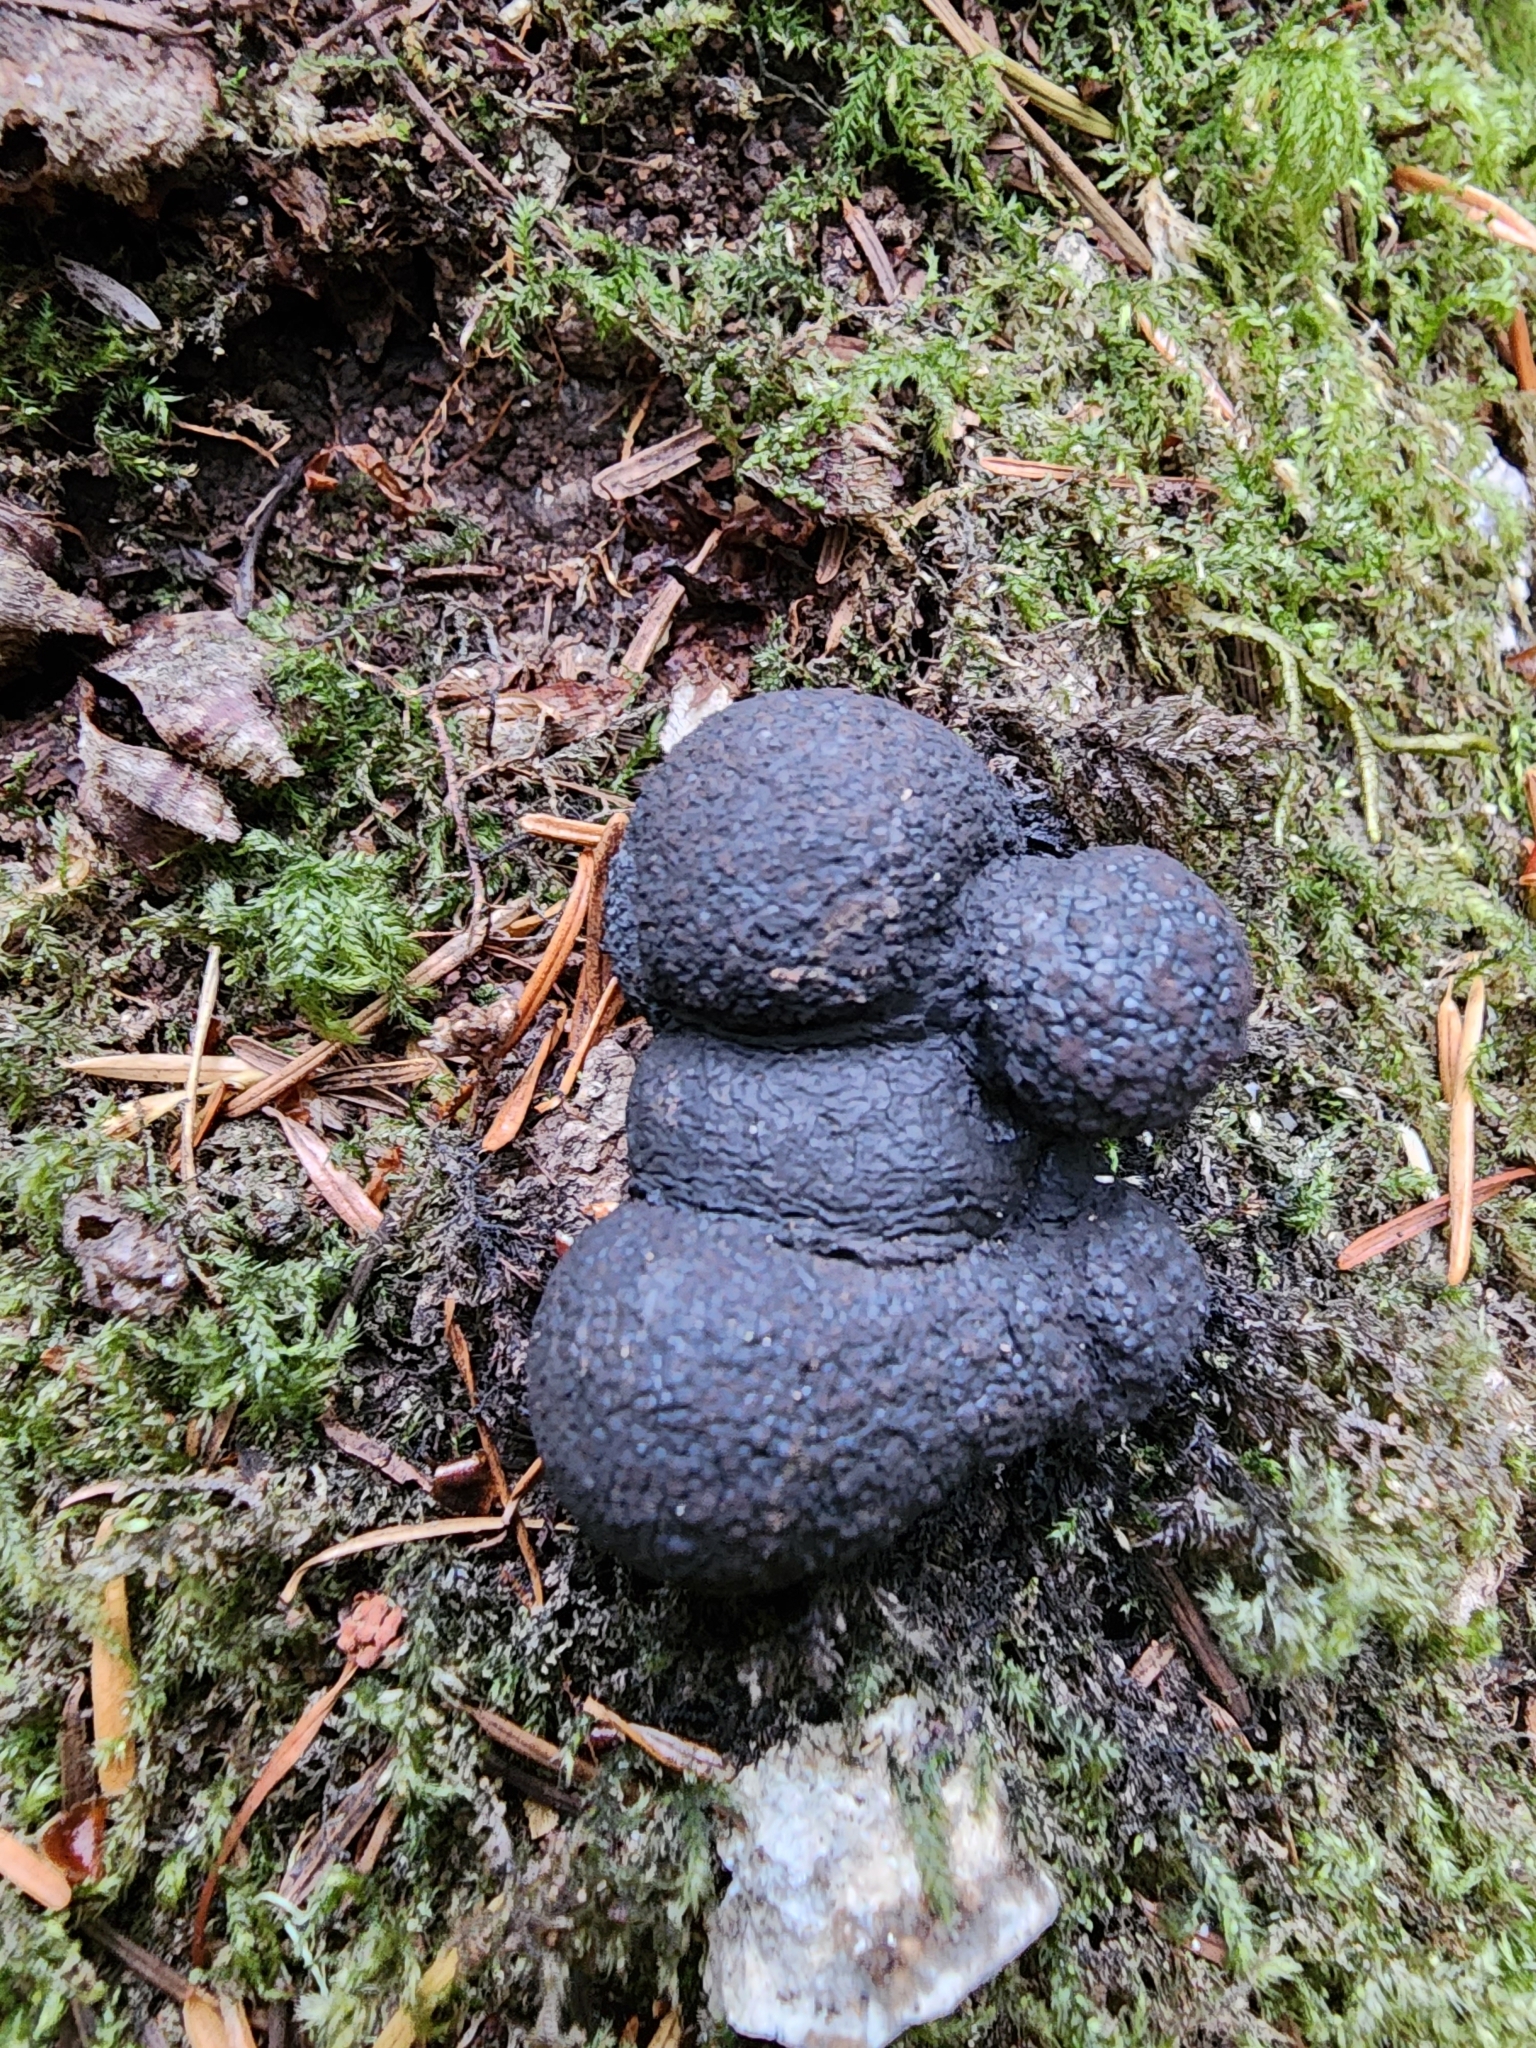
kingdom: Fungi
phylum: Ascomycota
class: Sordariomycetes
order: Xylariales
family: Hypoxylaceae
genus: Annulohypoxylon
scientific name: Annulohypoxylon thouarsianum
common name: Cramp balls
